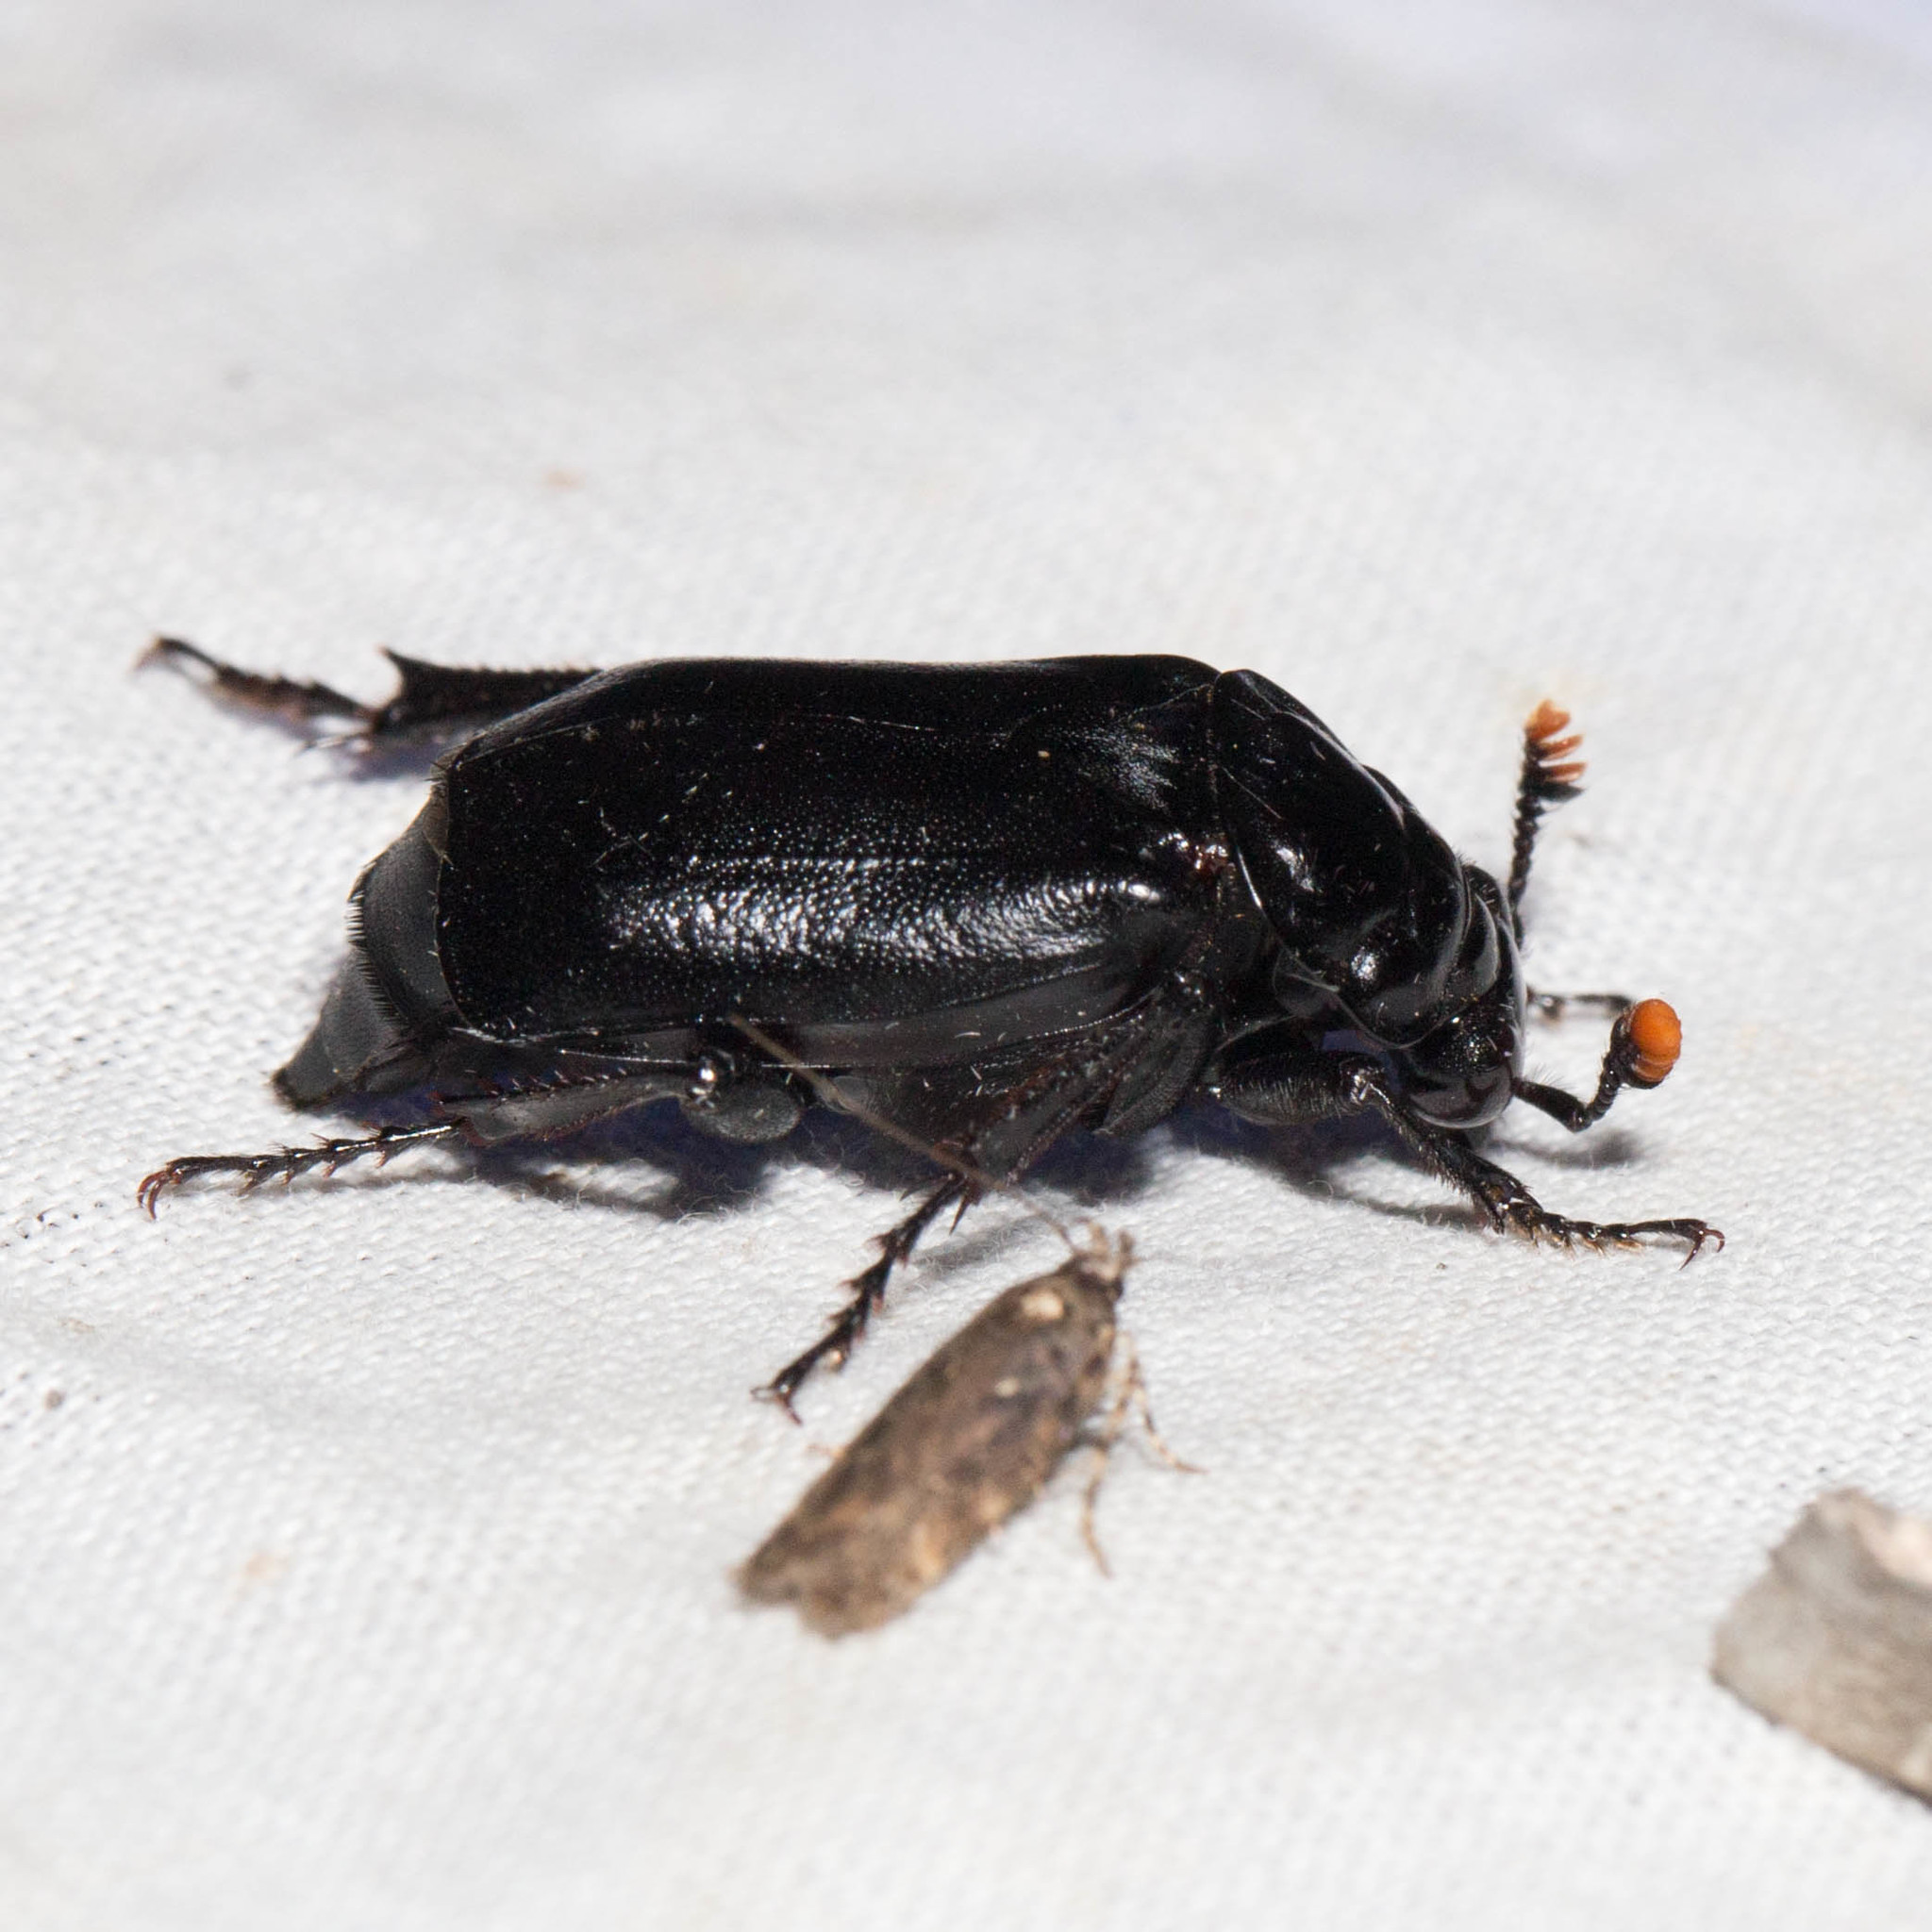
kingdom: Animalia
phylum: Arthropoda
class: Insecta
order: Coleoptera
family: Staphylinidae
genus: Nicrophorus
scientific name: Nicrophorus nigrita
